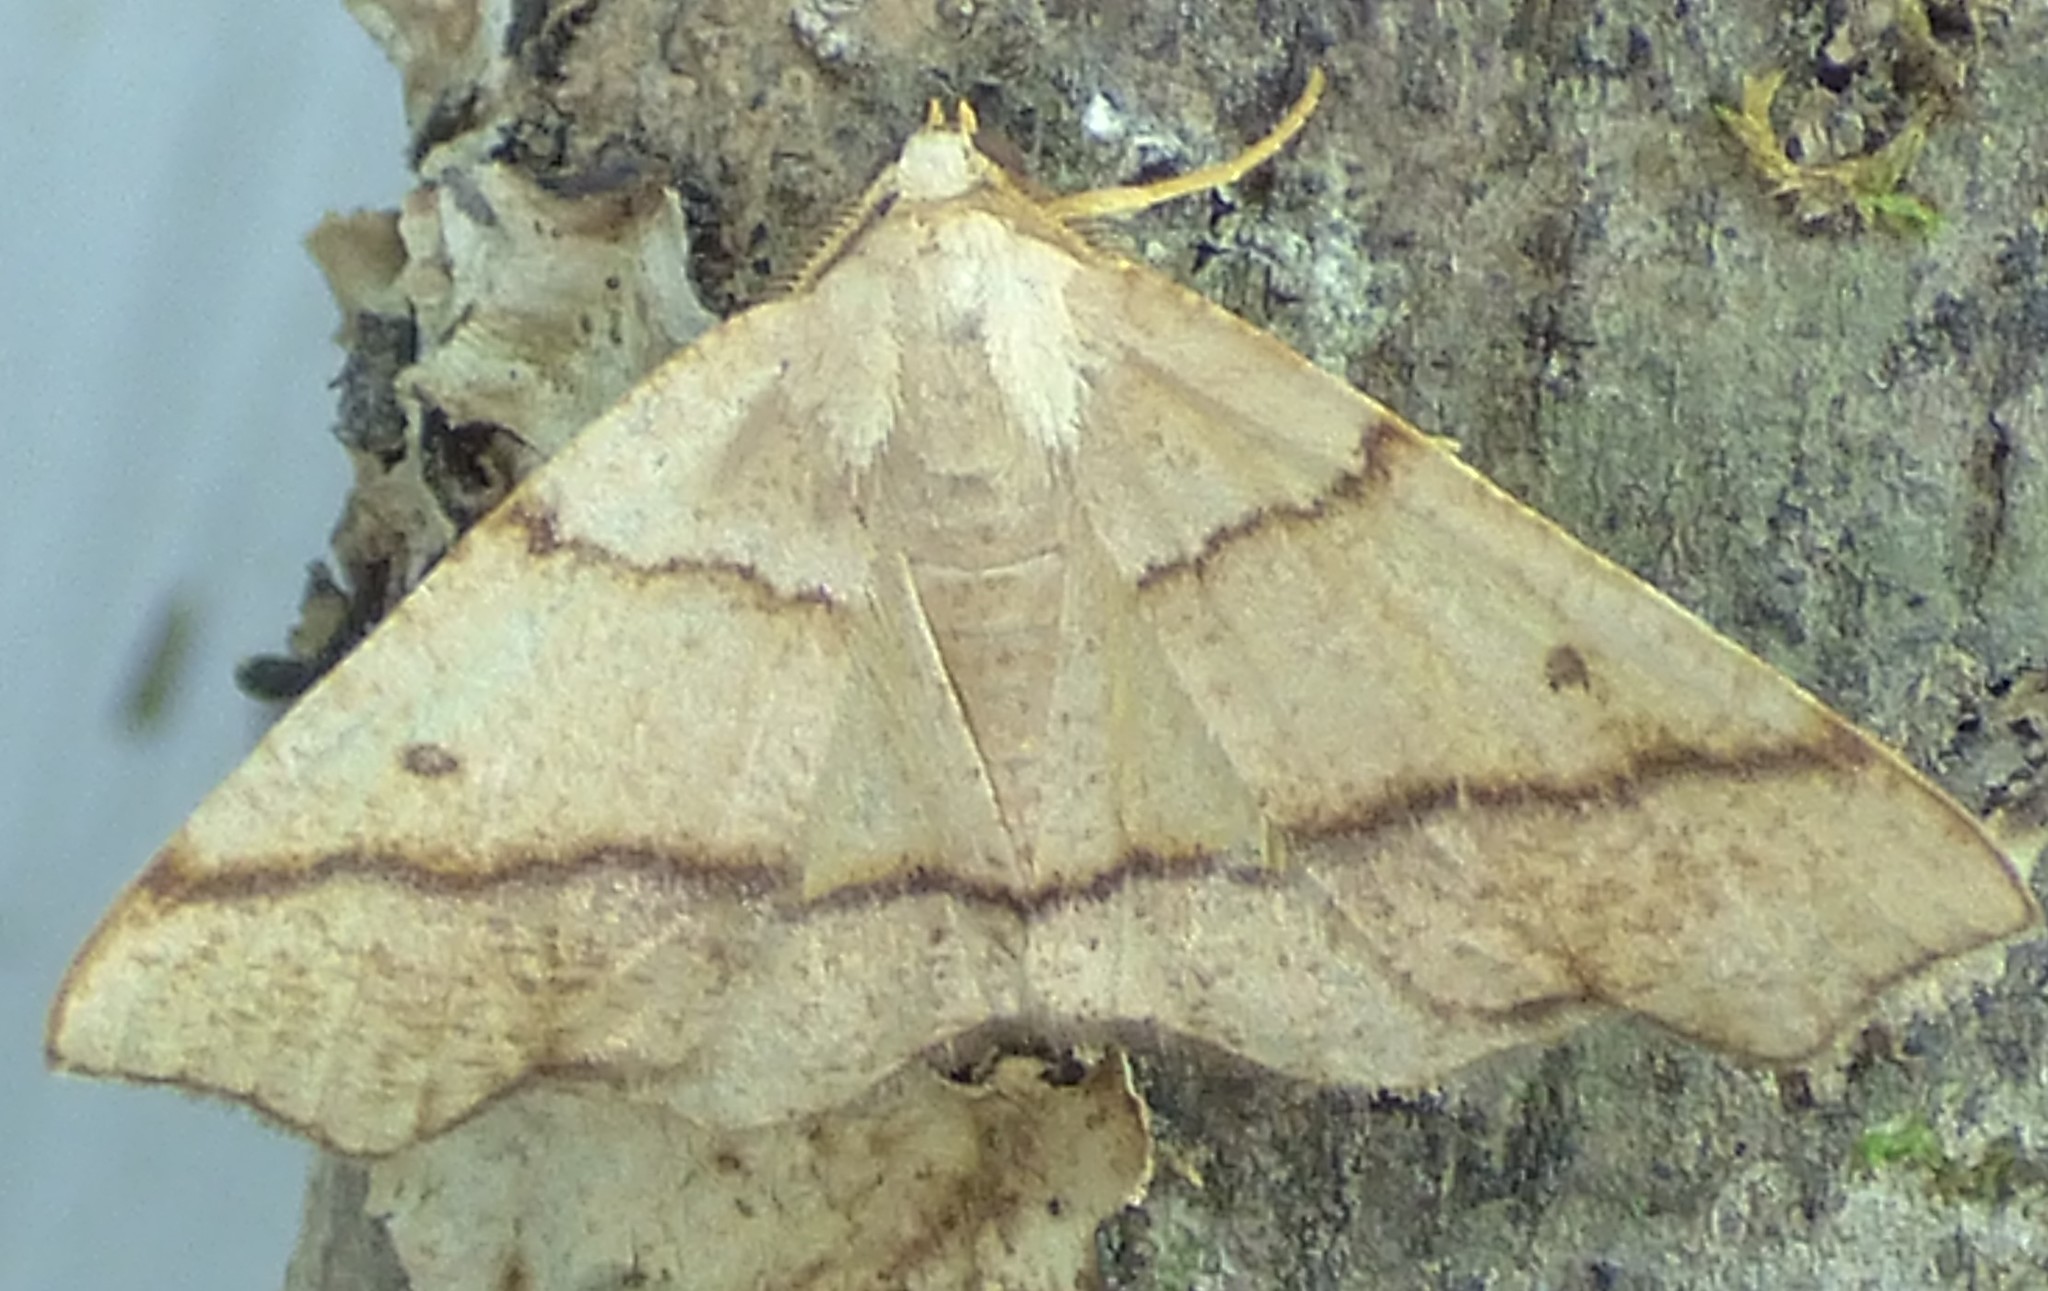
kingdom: Animalia
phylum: Arthropoda
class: Insecta
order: Lepidoptera
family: Geometridae
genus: Plagodis
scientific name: Plagodis alcoolaria
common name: Hollow-spotted plagodis
